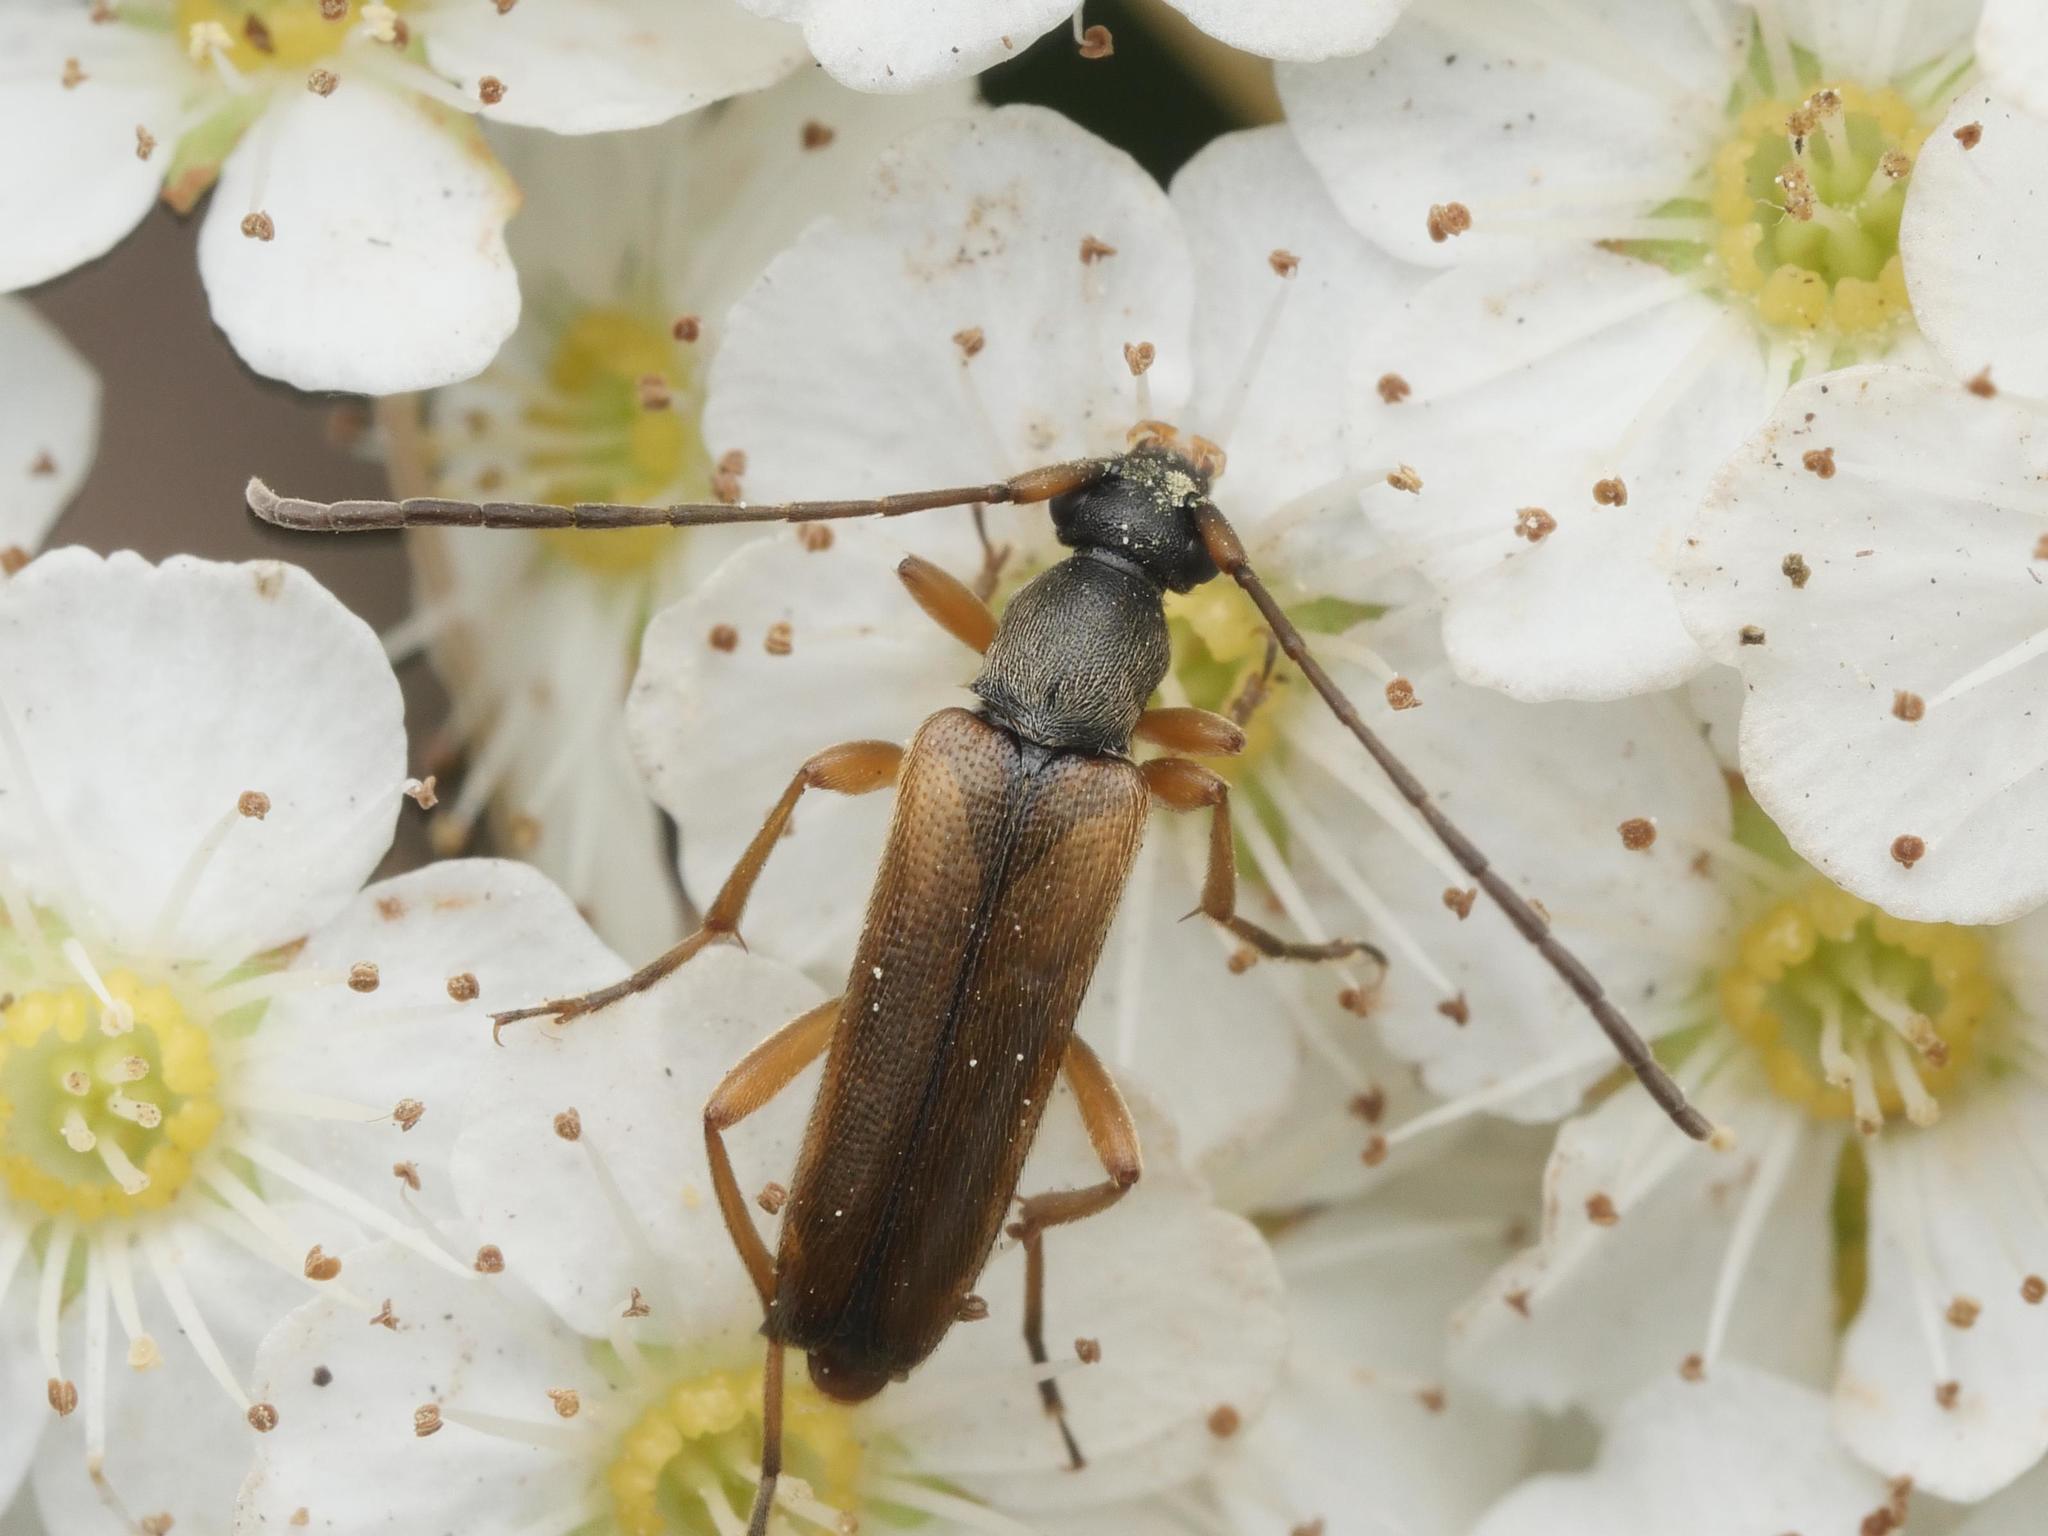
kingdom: Animalia
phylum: Arthropoda
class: Insecta
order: Coleoptera
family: Cerambycidae
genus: Alosterna
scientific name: Alosterna tabacicolor
